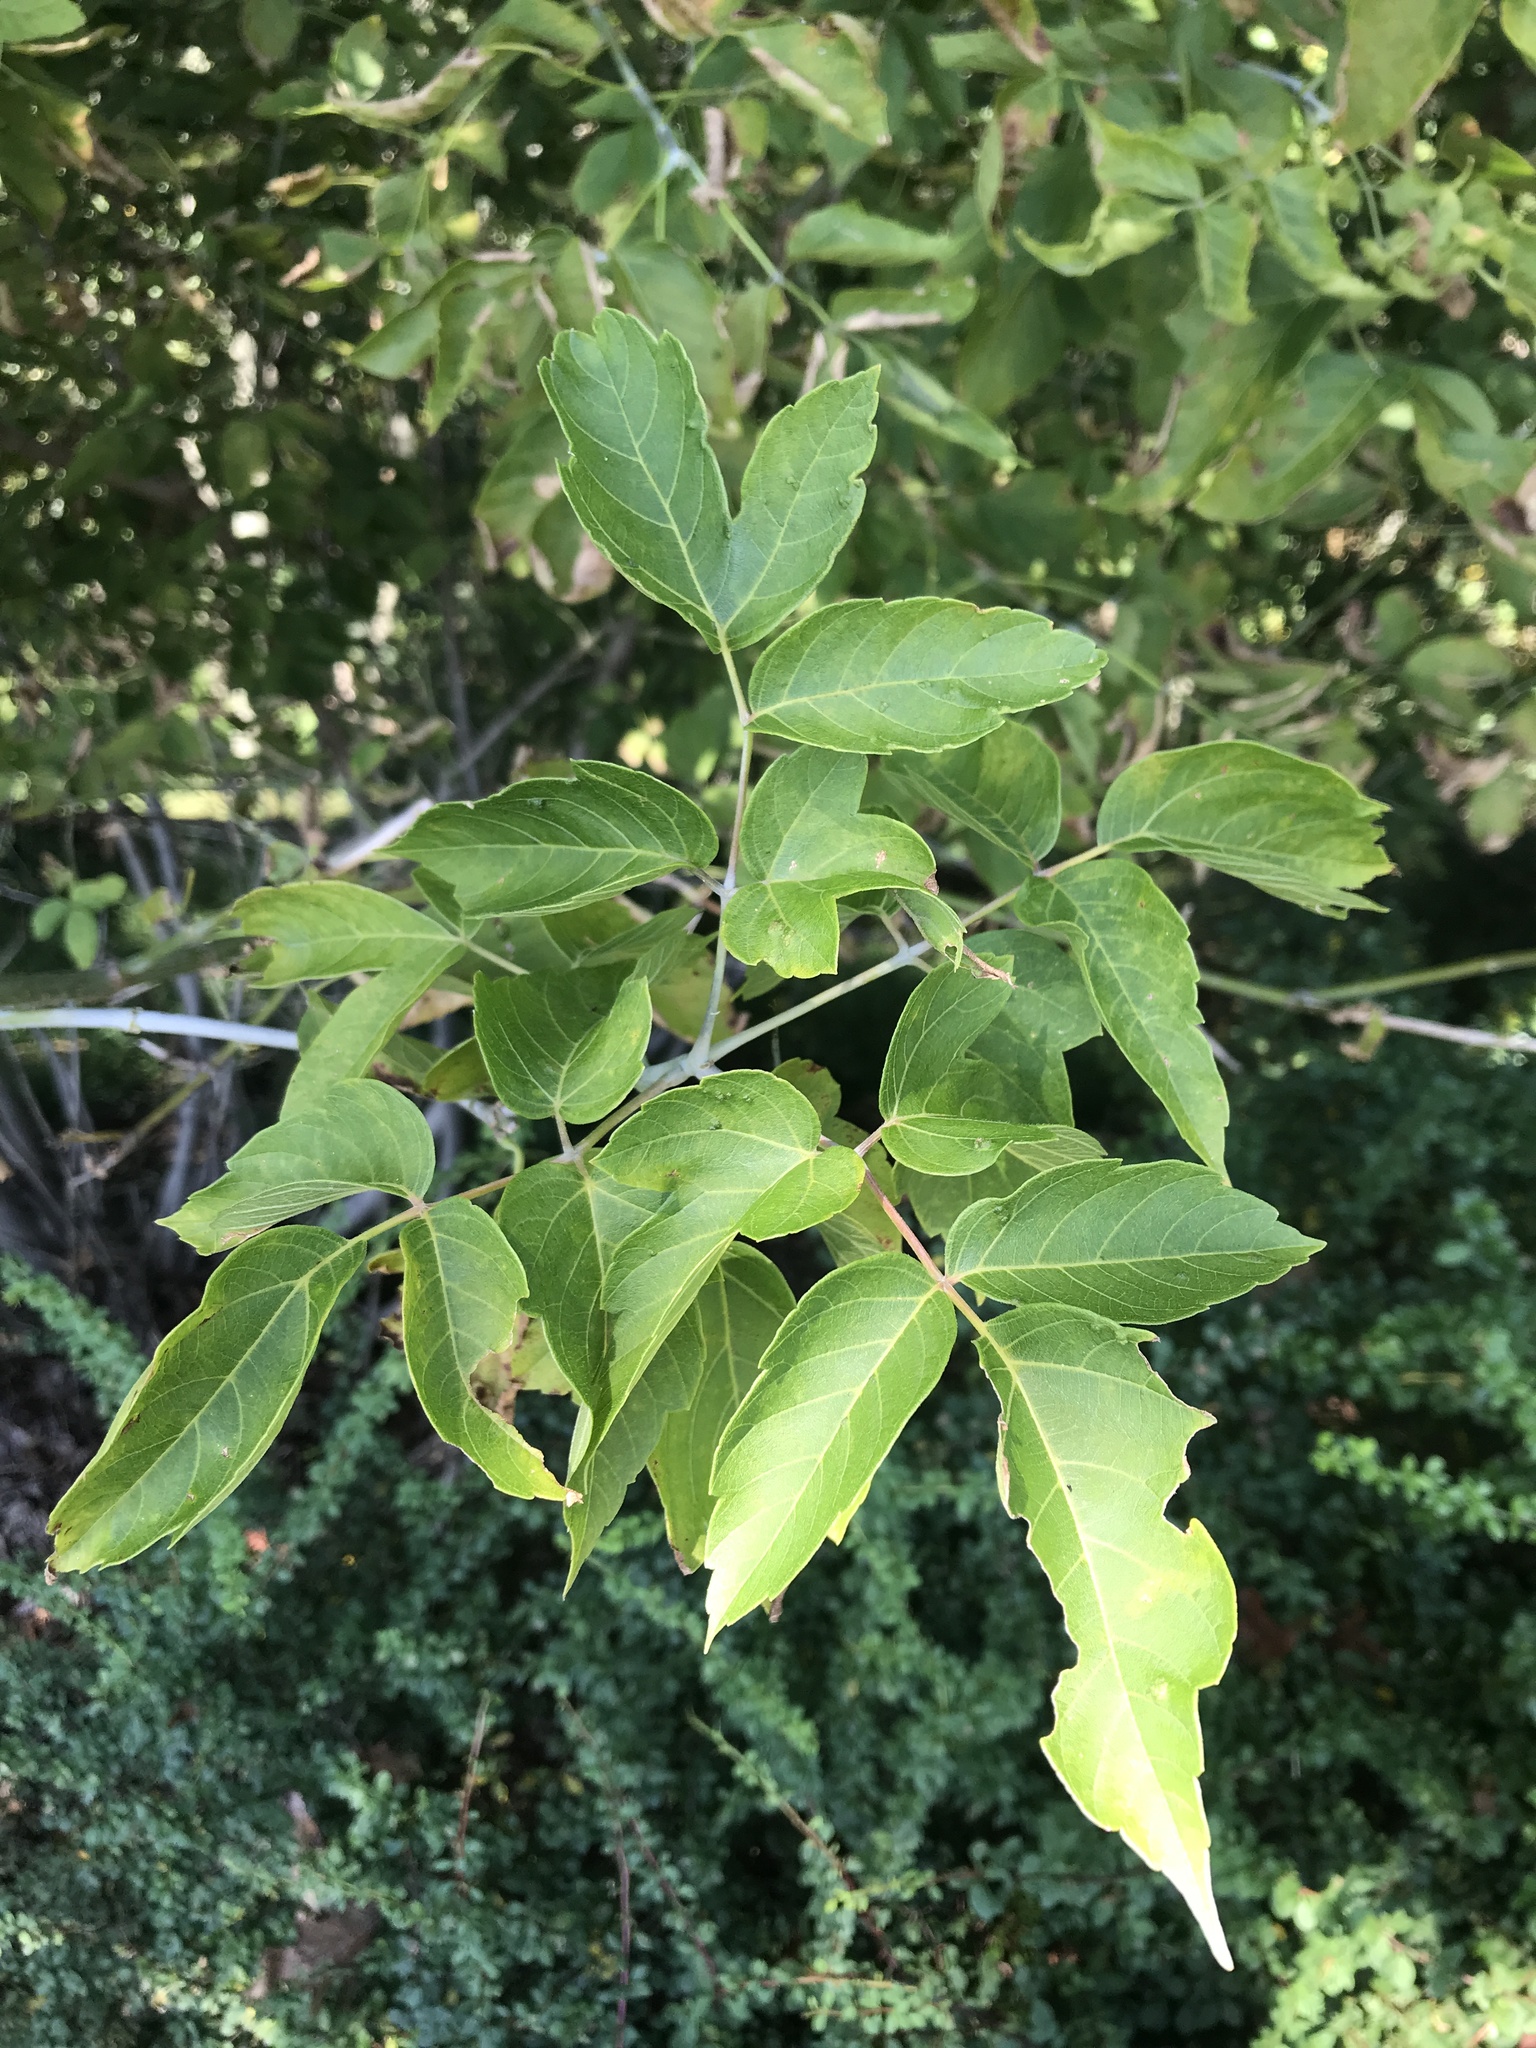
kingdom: Plantae
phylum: Tracheophyta
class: Magnoliopsida
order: Sapindales
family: Sapindaceae
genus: Acer
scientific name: Acer negundo
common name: Ashleaf maple
